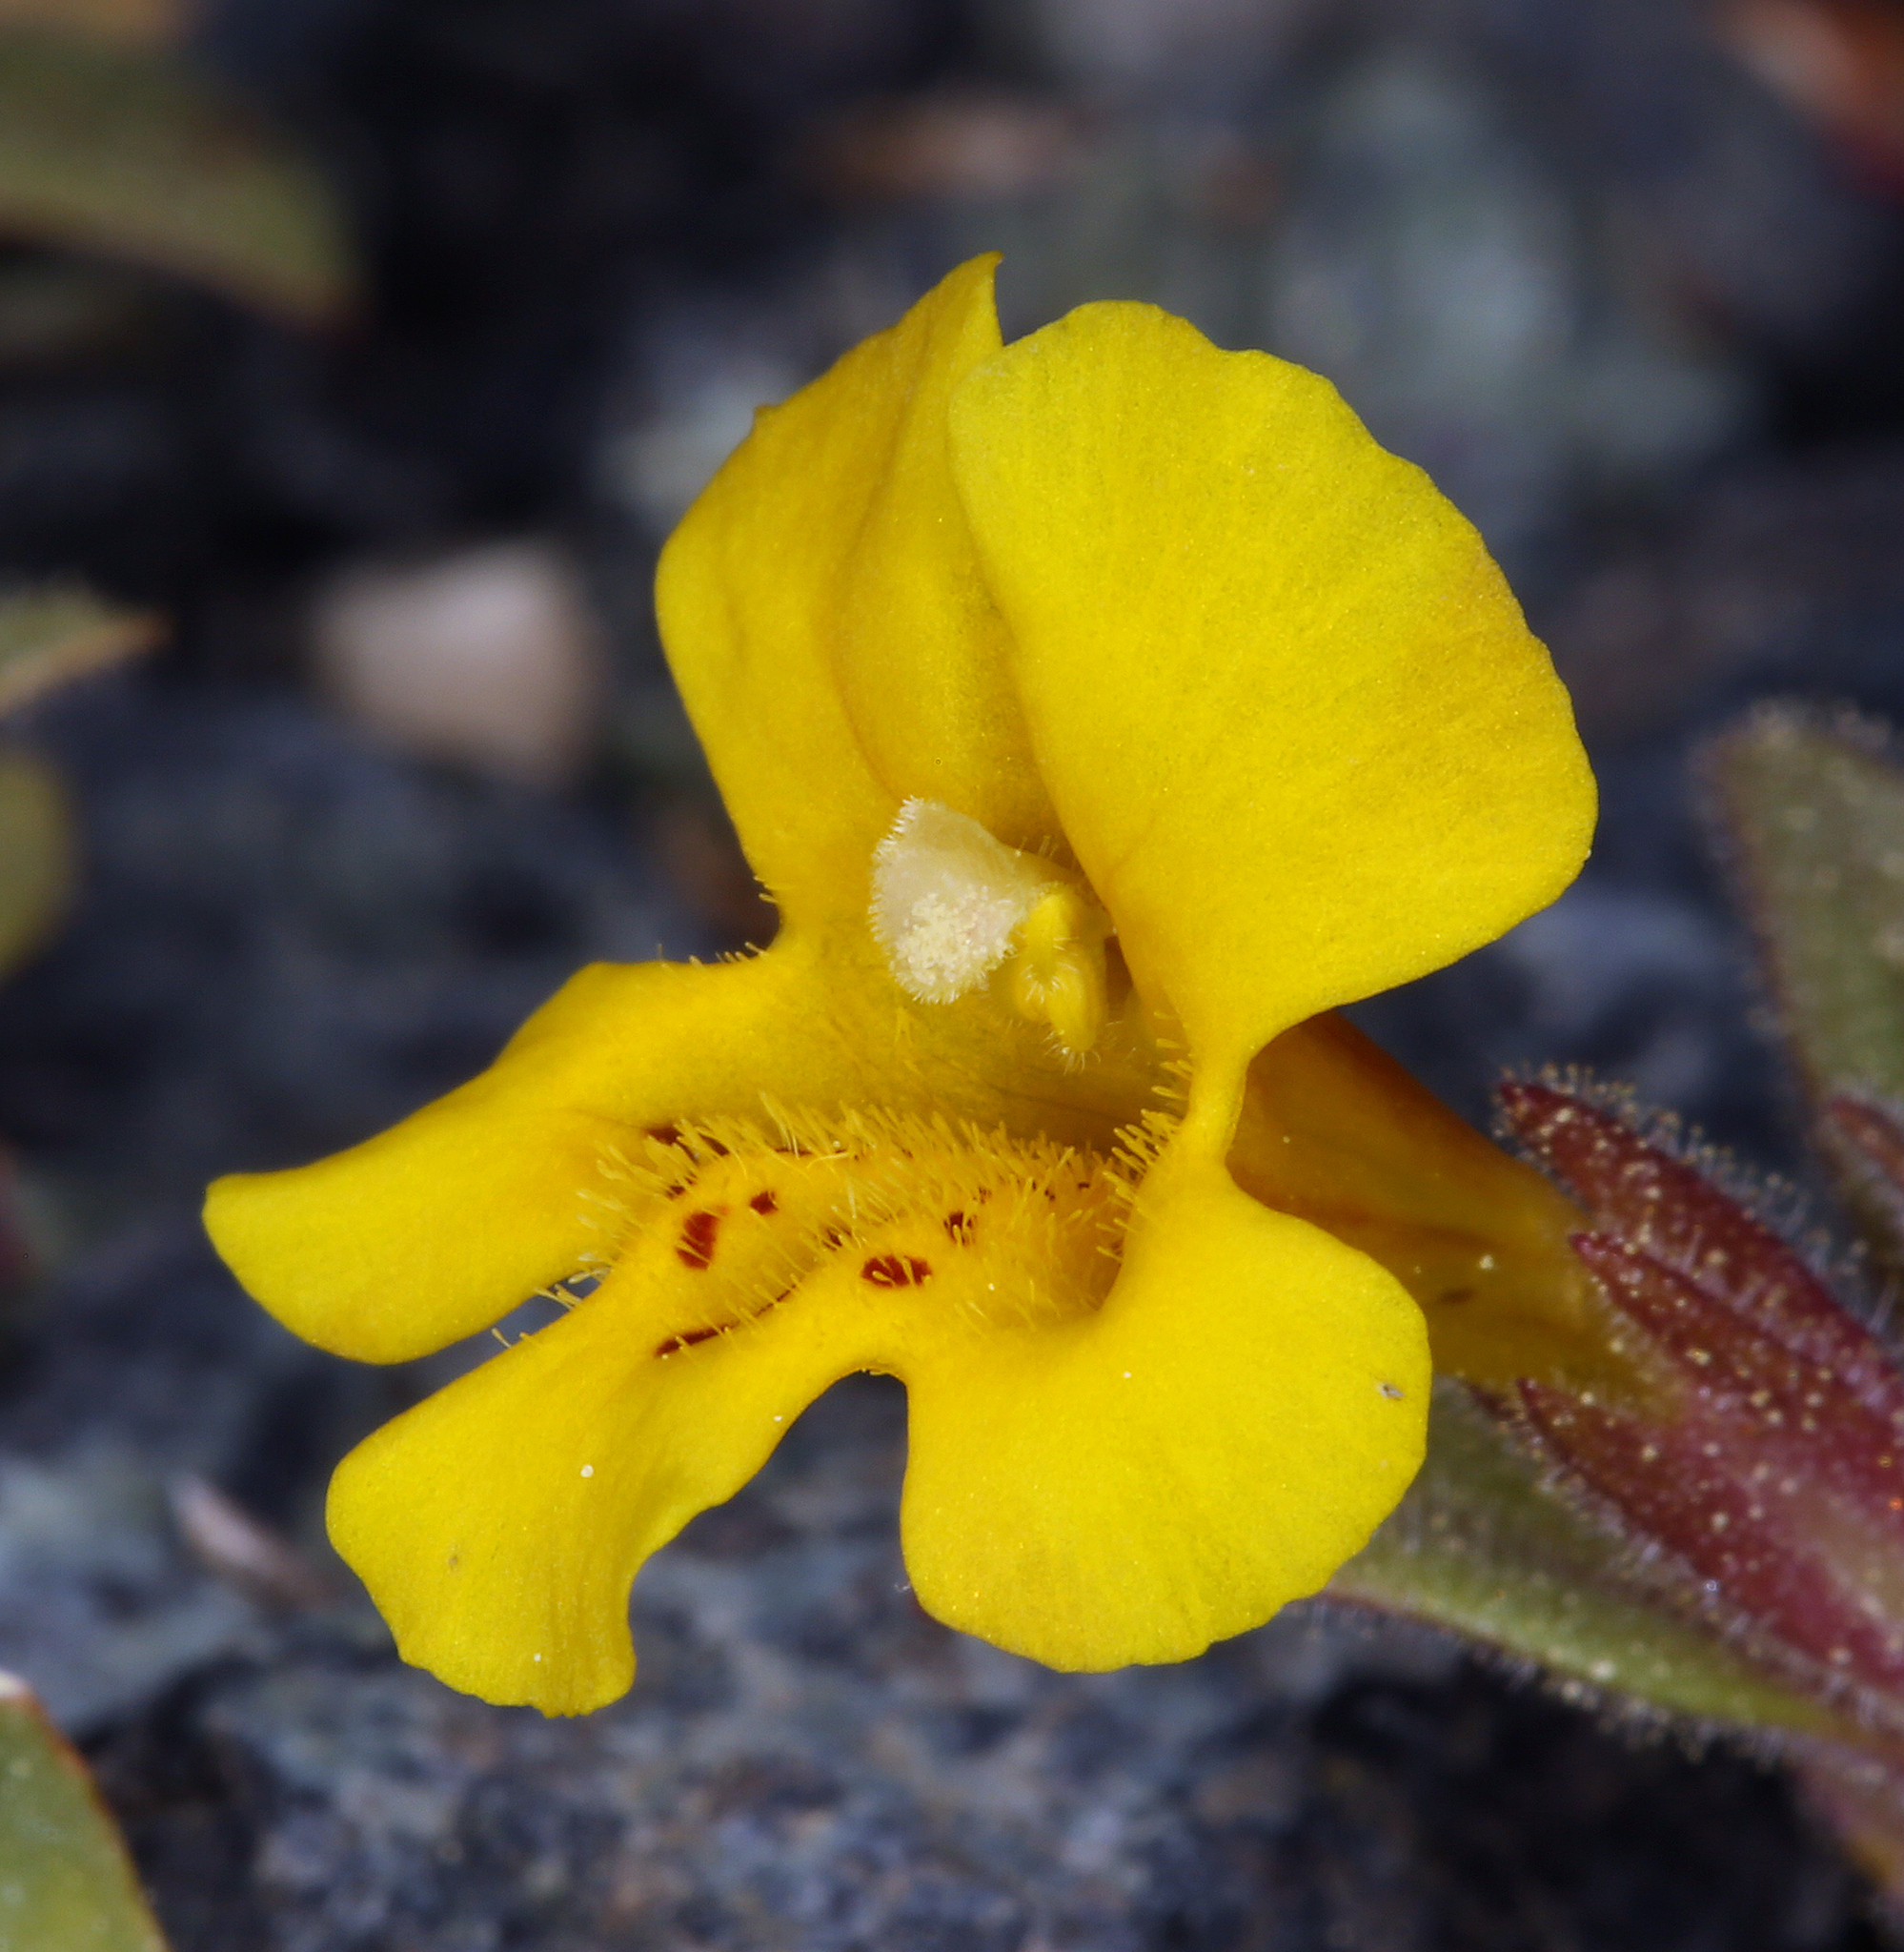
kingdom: Plantae
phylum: Tracheophyta
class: Magnoliopsida
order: Lamiales
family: Phrymaceae
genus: Diplacus
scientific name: Diplacus mephiticus
